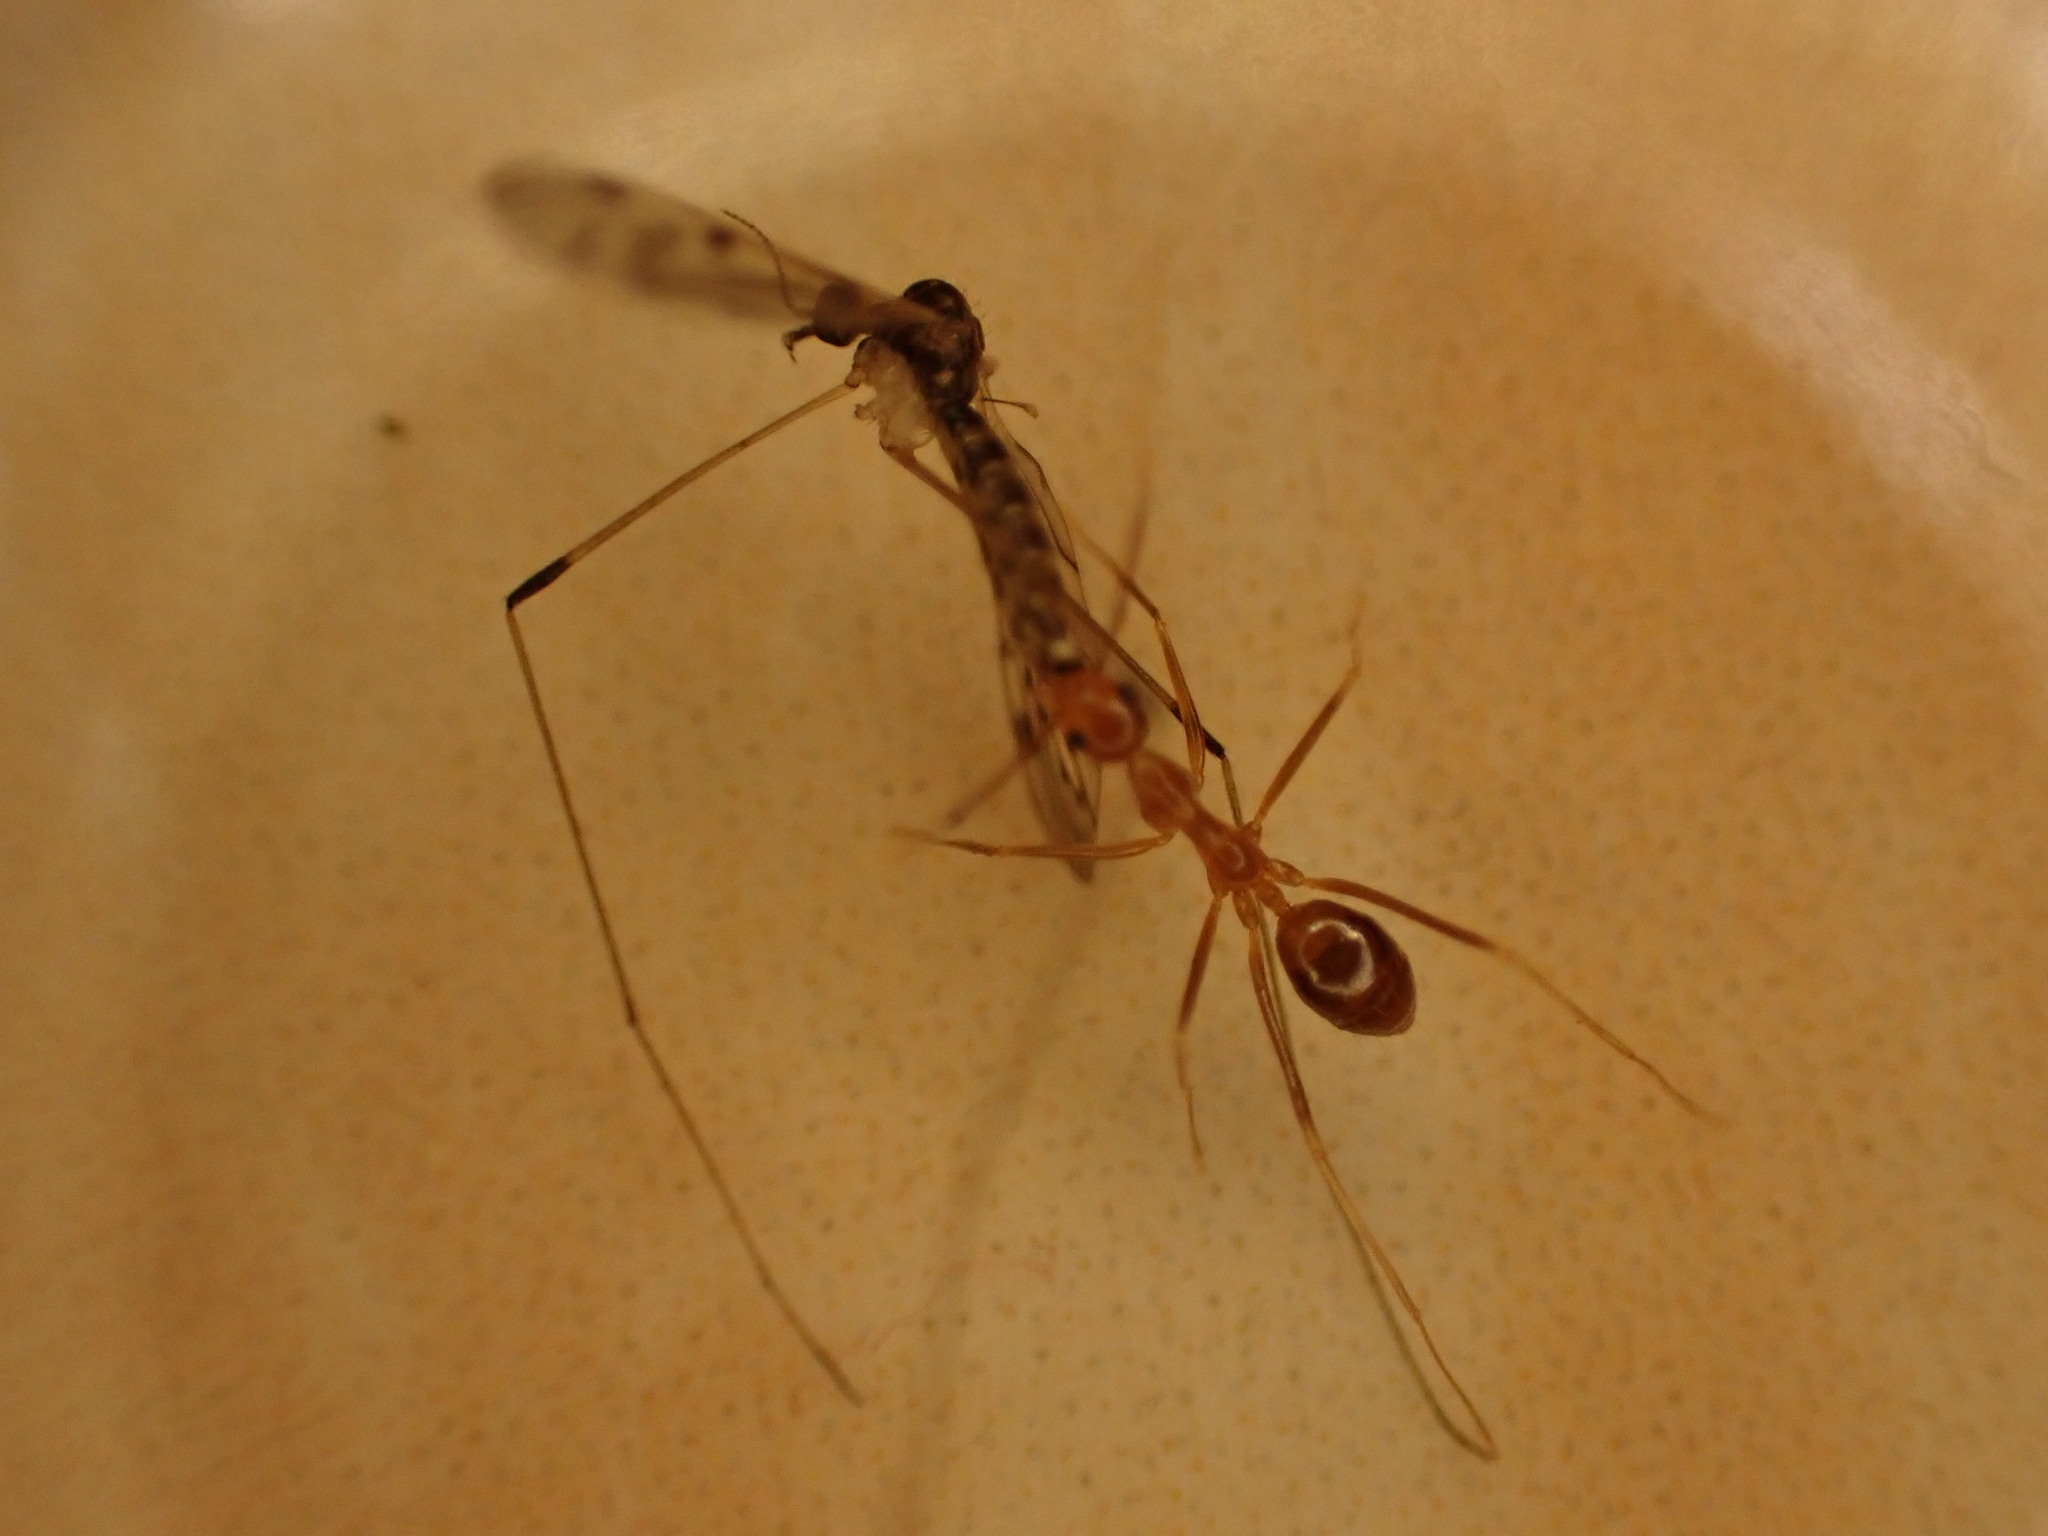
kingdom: Animalia
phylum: Arthropoda
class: Insecta
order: Hymenoptera
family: Formicidae
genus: Anoplolepis
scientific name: Anoplolepis gracilipes
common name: Ant
